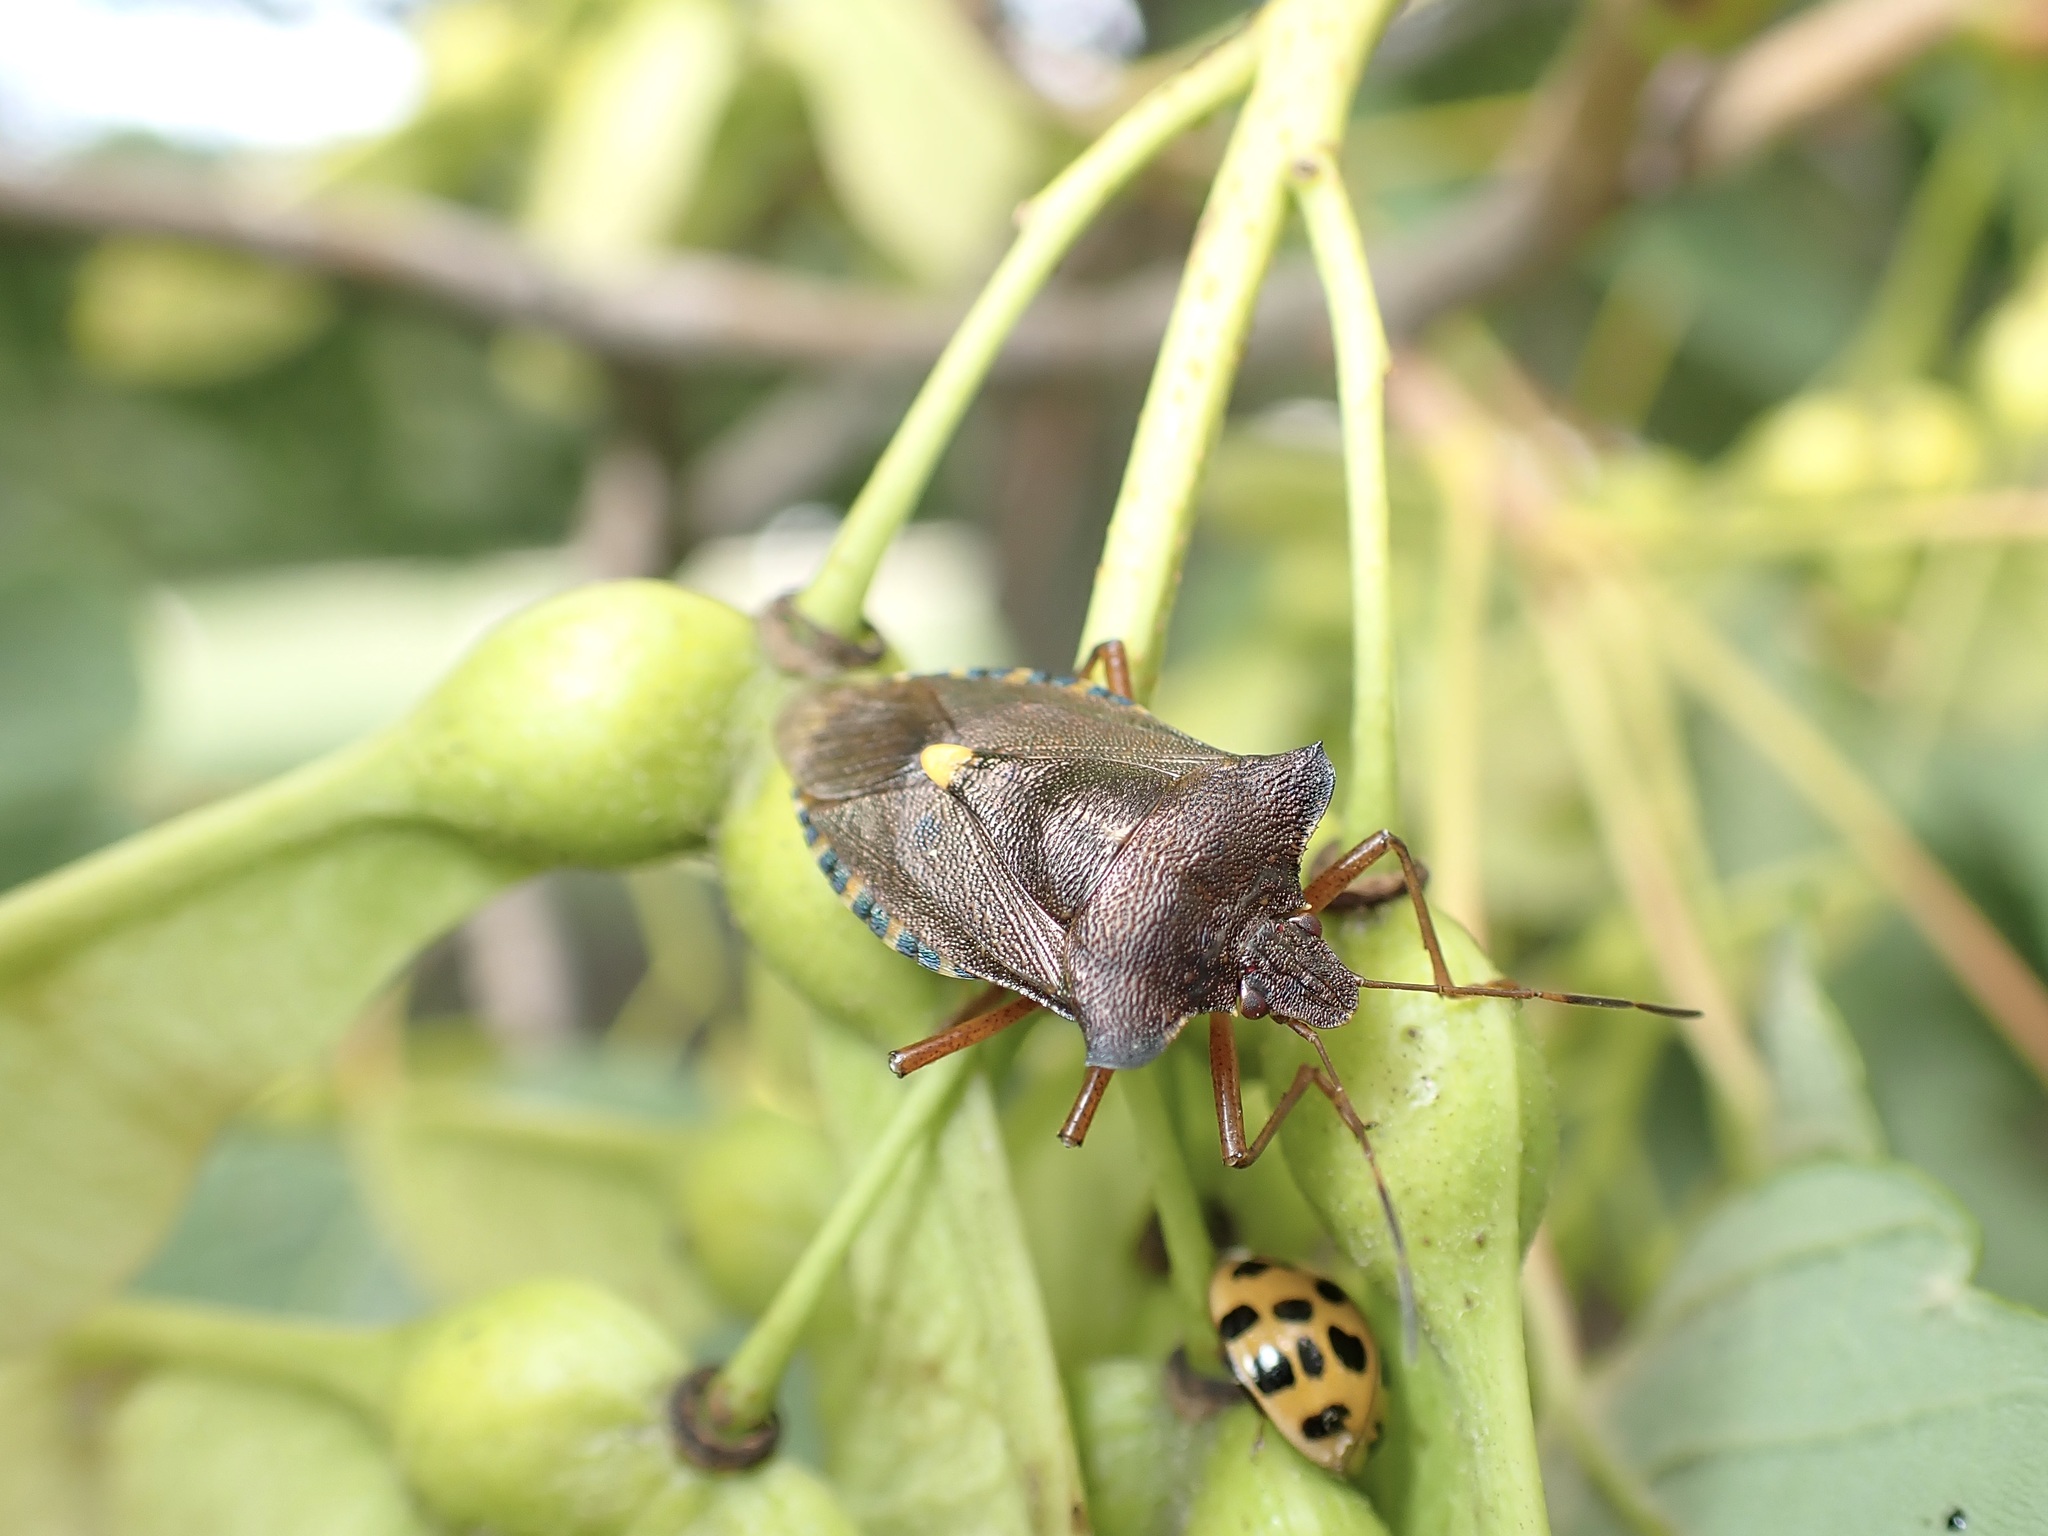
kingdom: Animalia
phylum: Arthropoda
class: Insecta
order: Hemiptera
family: Pentatomidae
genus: Pentatoma
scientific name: Pentatoma rufipes
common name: Forest bug
